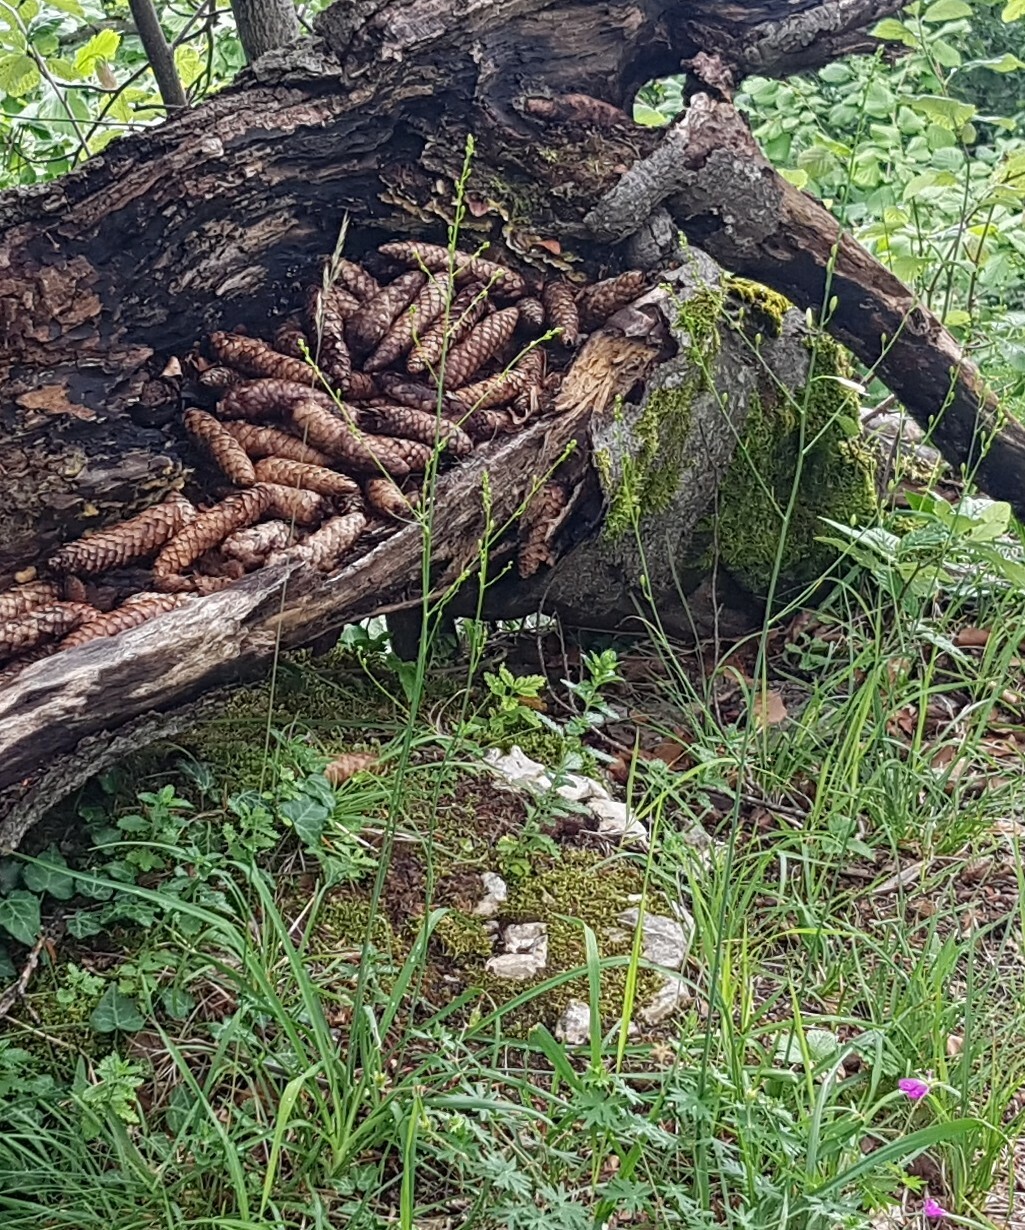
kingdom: Plantae
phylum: Tracheophyta
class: Liliopsida
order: Asparagales
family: Asparagaceae
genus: Anthericum
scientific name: Anthericum ramosum
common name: Branched st. bernard's-lily
